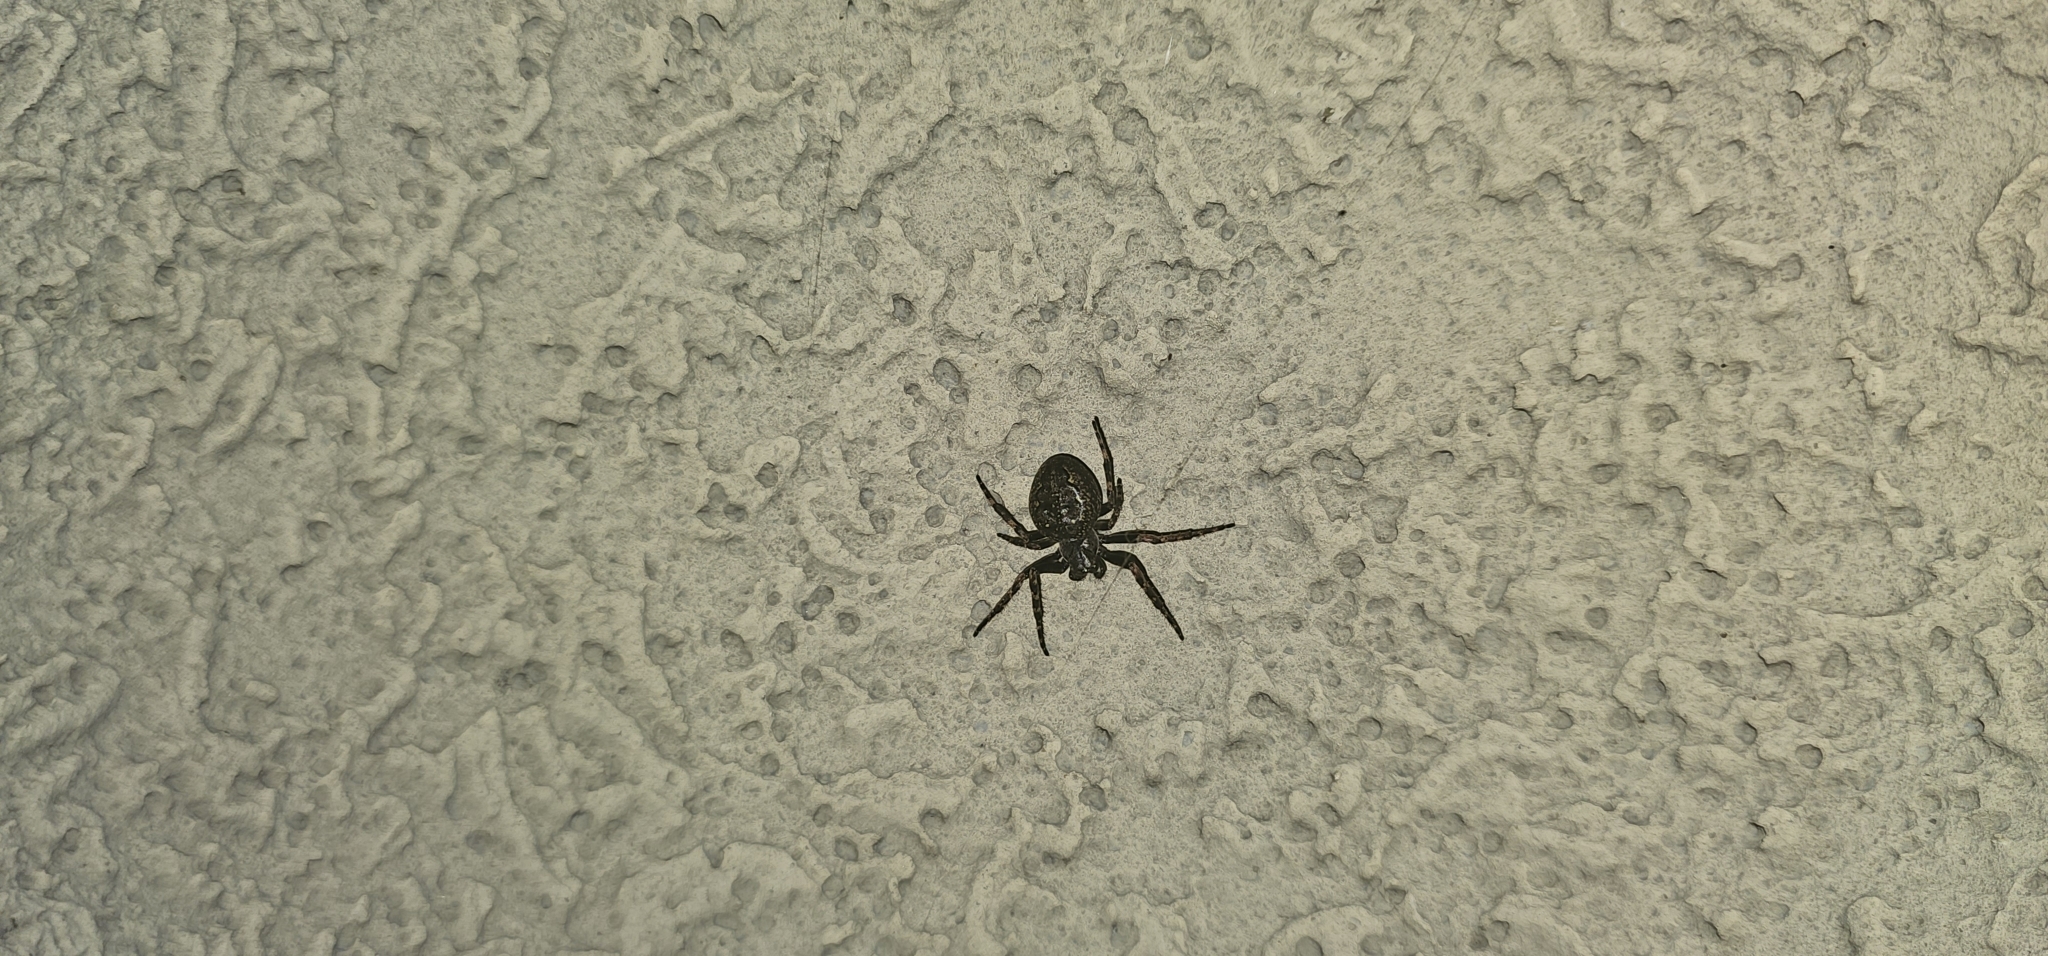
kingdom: Animalia
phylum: Arthropoda
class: Arachnida
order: Araneae
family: Araneidae
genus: Nuctenea
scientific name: Nuctenea umbratica
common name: Toad spider
